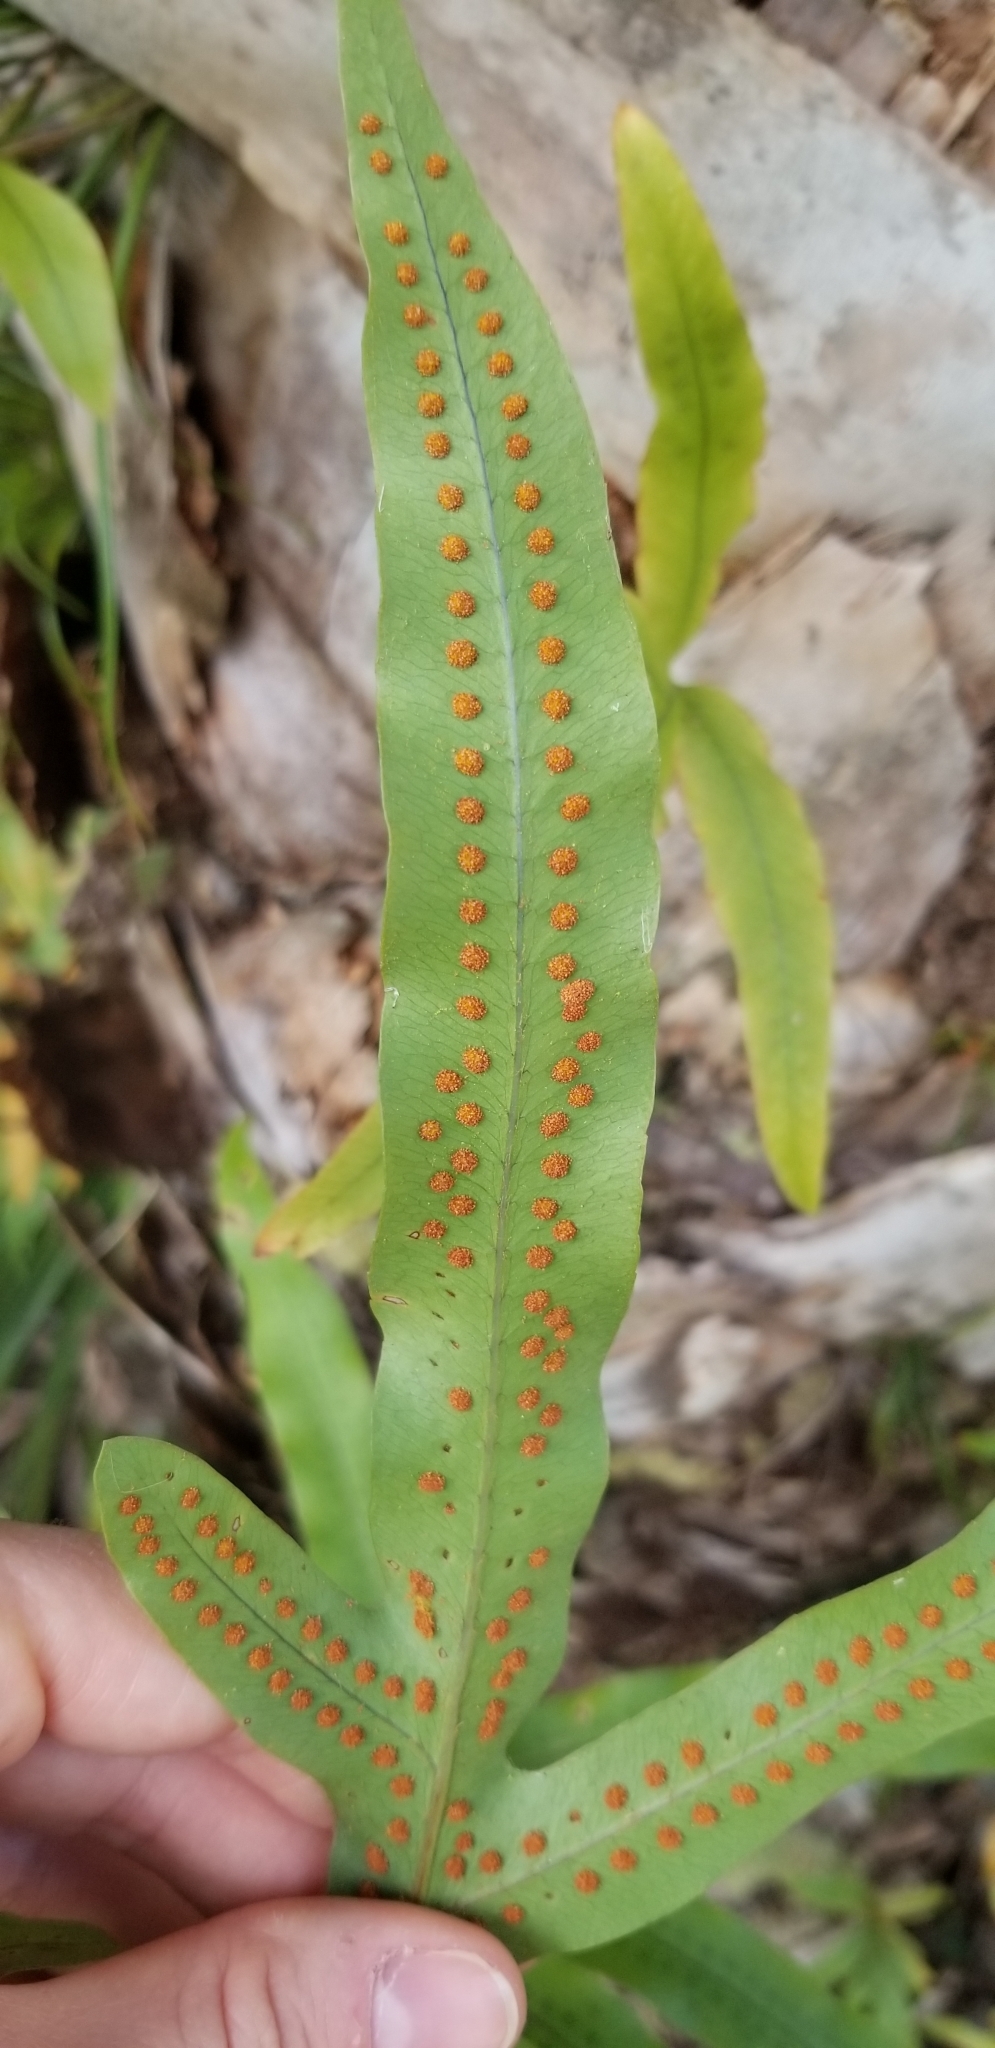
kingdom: Plantae
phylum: Tracheophyta
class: Polypodiopsida
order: Polypodiales
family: Polypodiaceae
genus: Phlebodium
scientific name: Phlebodium aureum
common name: Gold-foot fern
